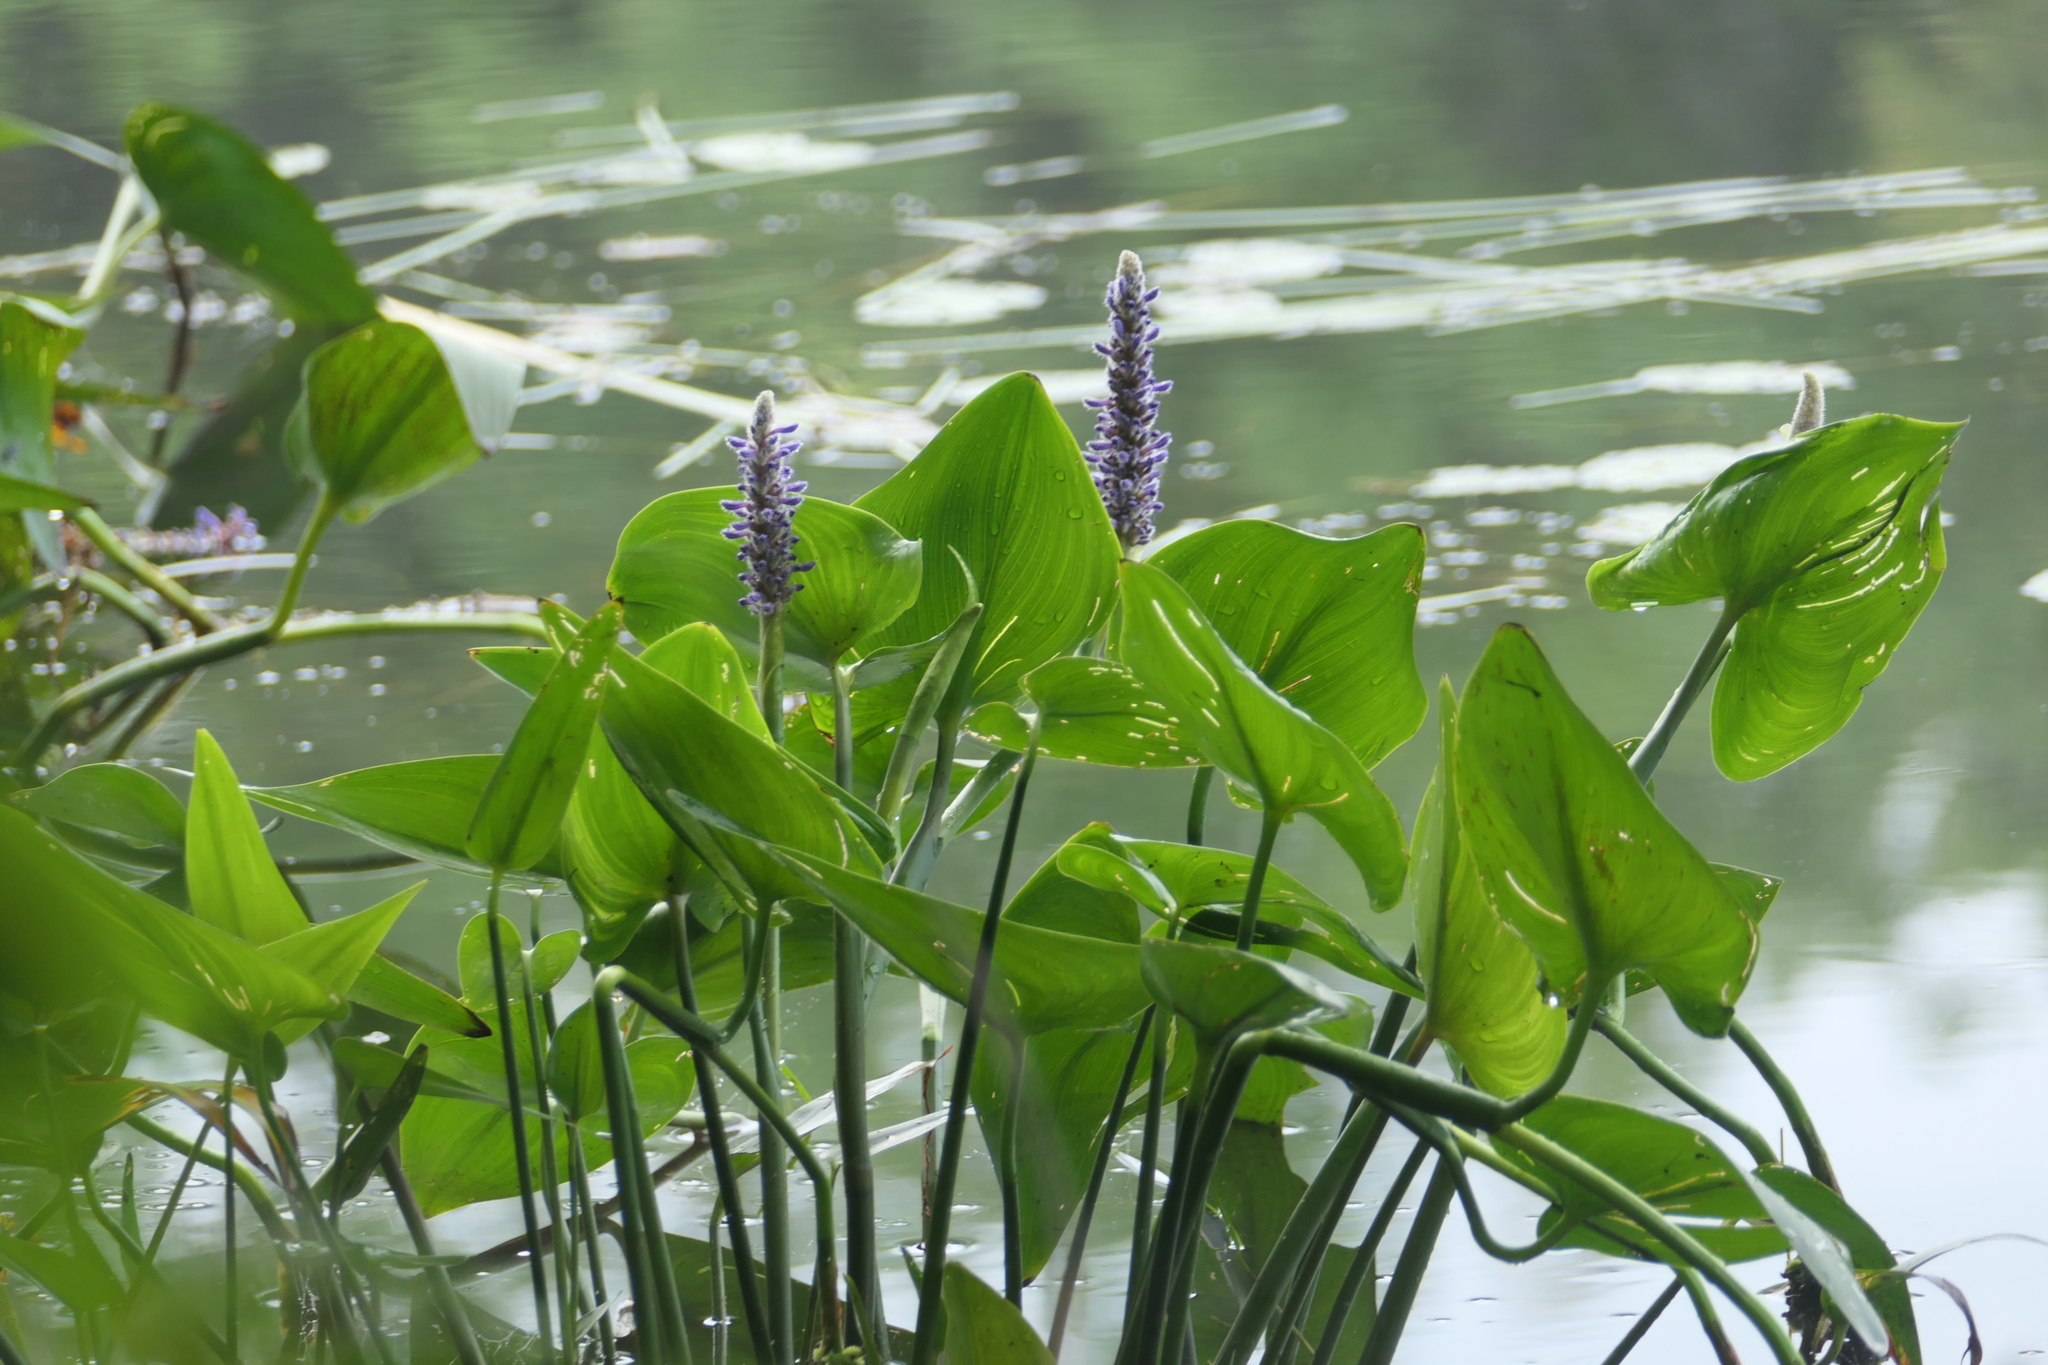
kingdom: Plantae
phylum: Tracheophyta
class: Liliopsida
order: Commelinales
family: Pontederiaceae
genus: Pontederia
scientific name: Pontederia cordata
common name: Pickerelweed
